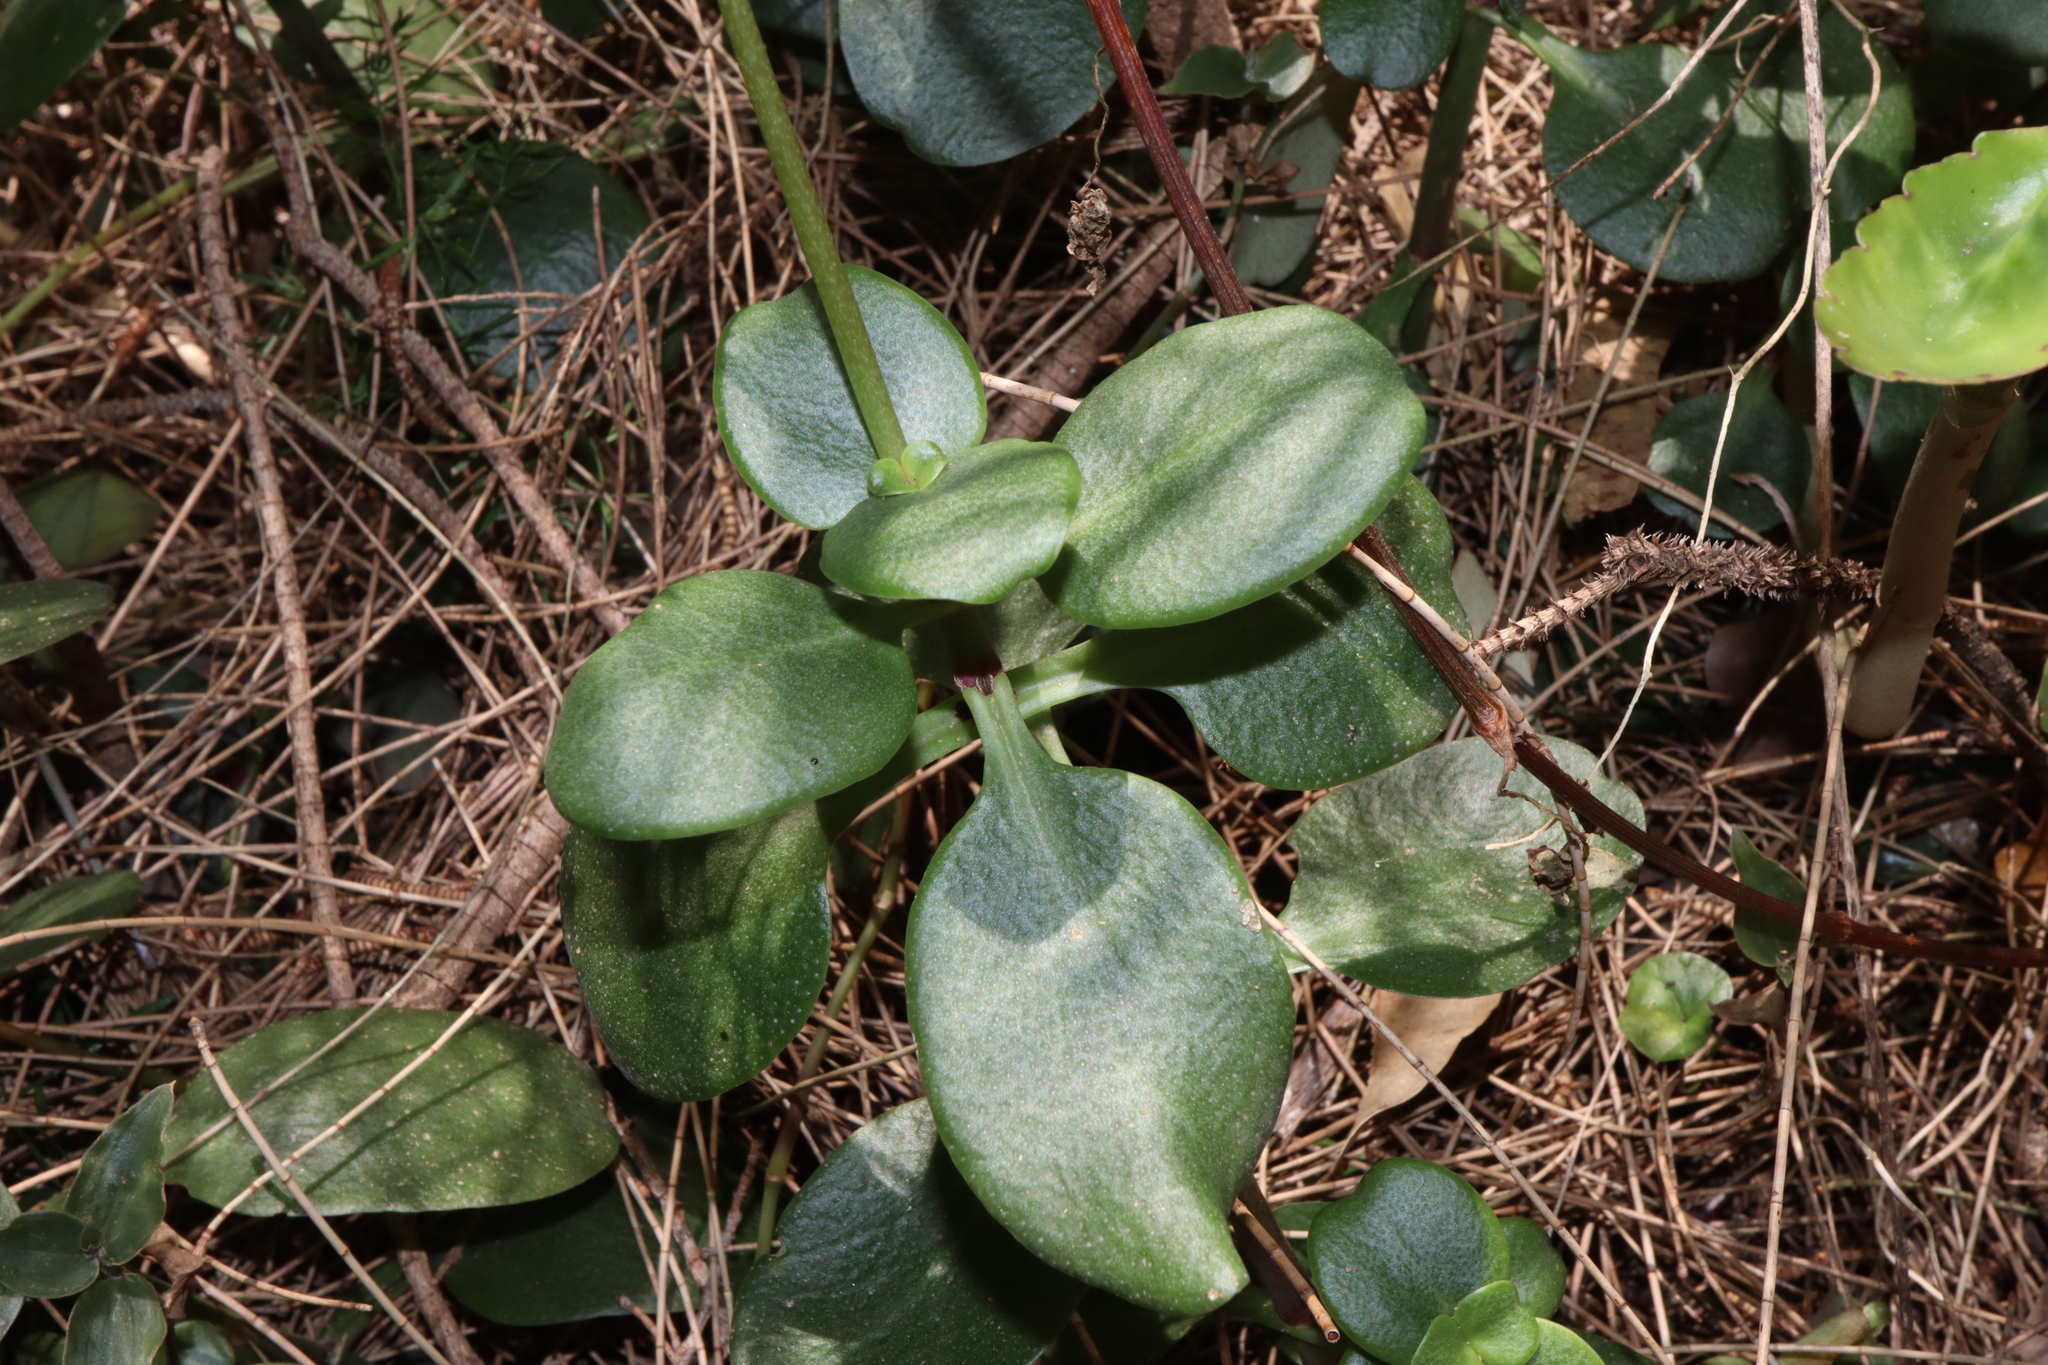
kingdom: Plantae
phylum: Tracheophyta
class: Magnoliopsida
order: Saxifragales
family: Crassulaceae
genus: Crassula
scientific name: Crassula multicava
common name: Cape province pygmyweed
